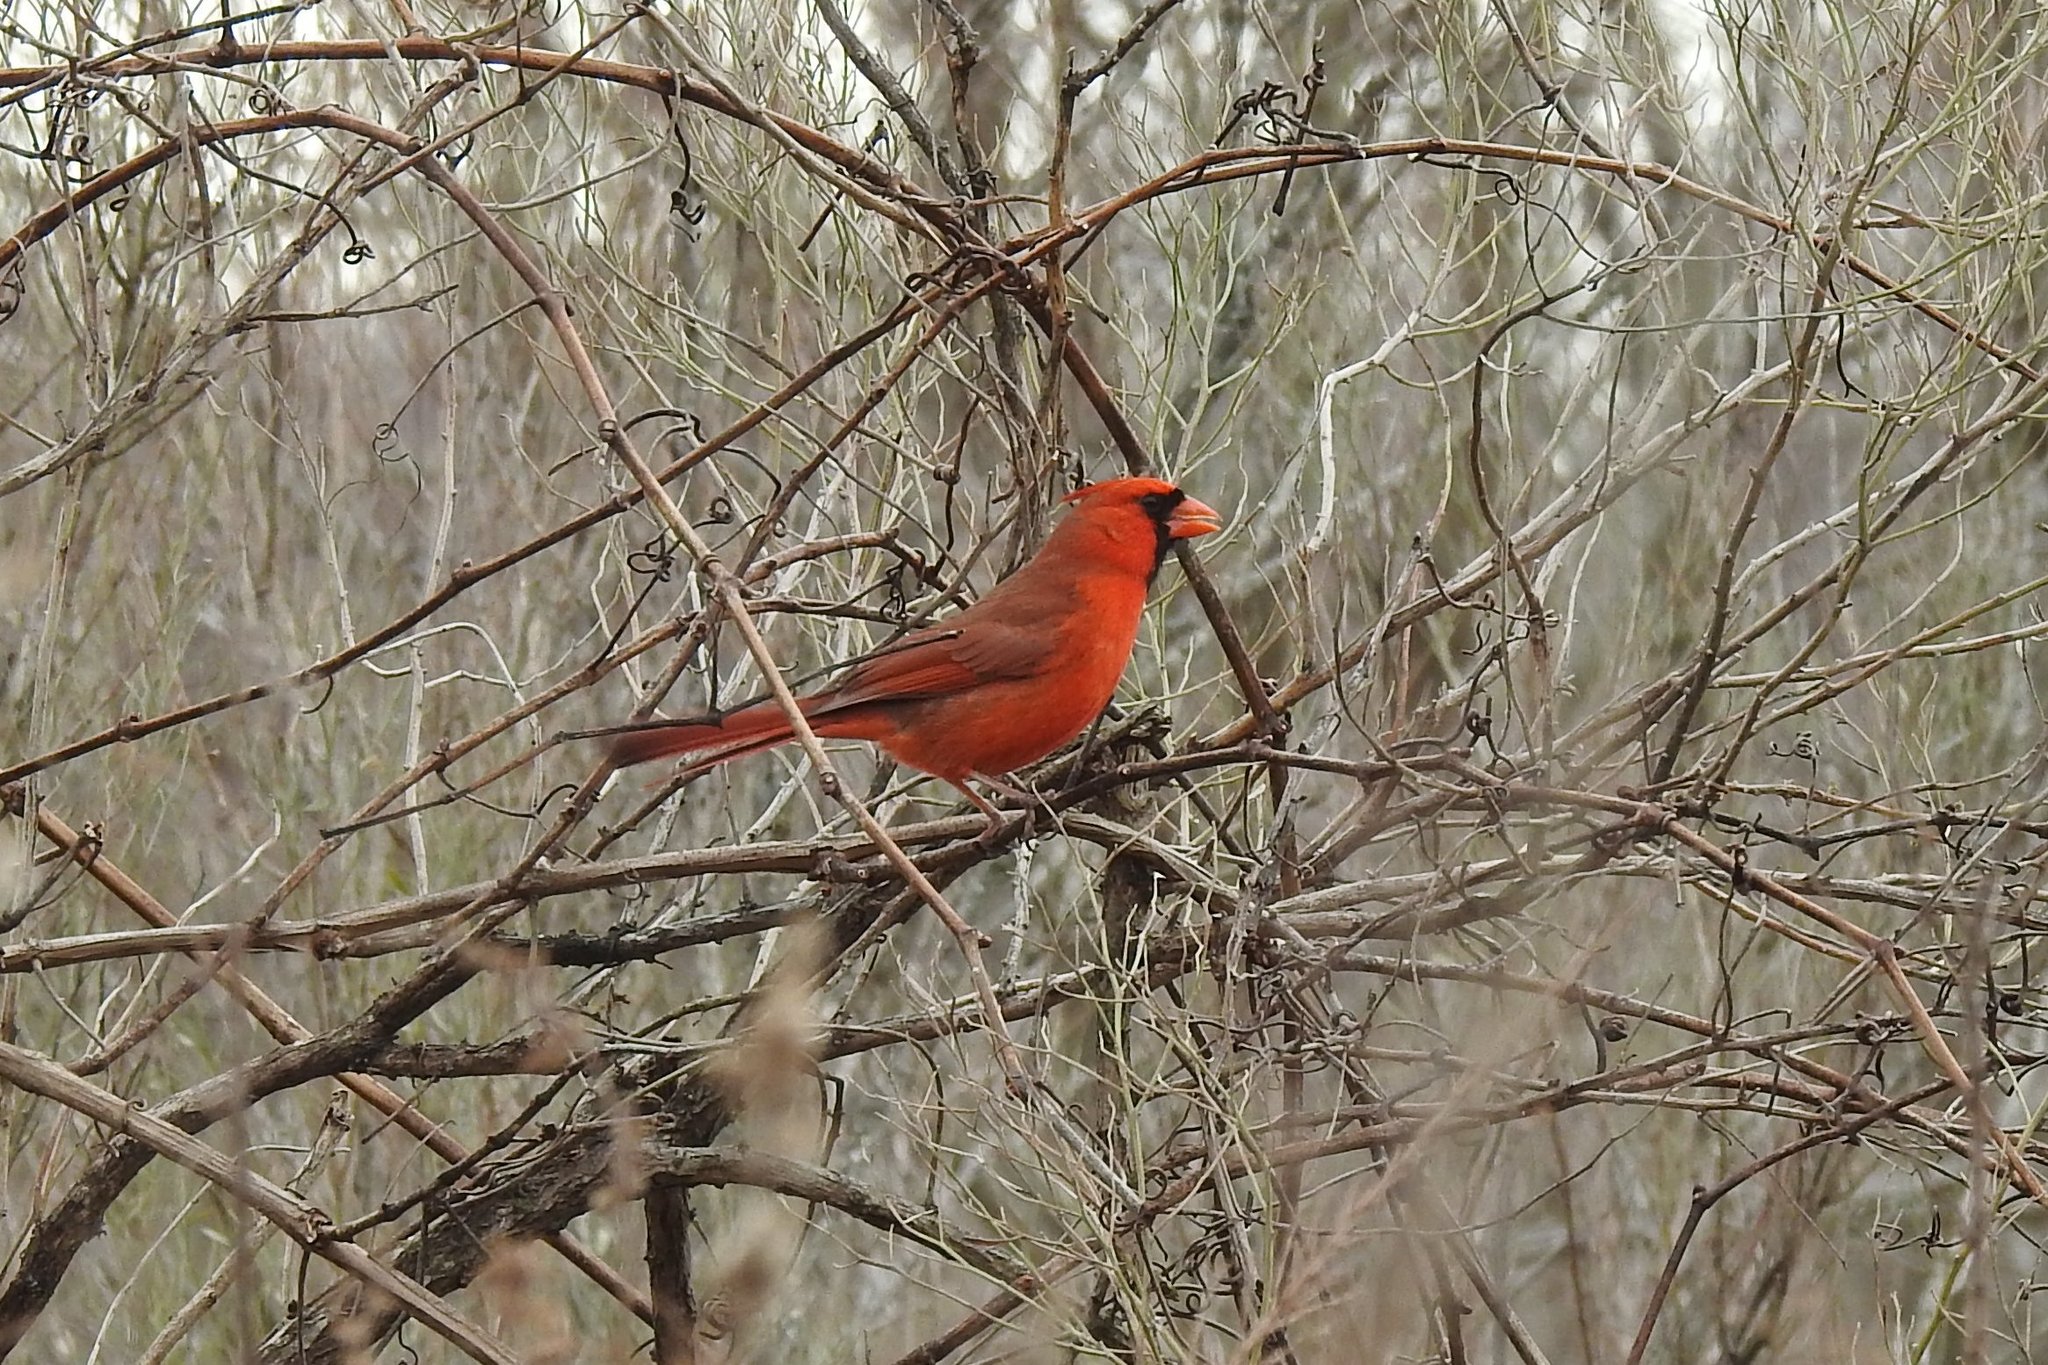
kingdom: Animalia
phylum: Chordata
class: Aves
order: Passeriformes
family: Cardinalidae
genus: Cardinalis
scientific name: Cardinalis cardinalis
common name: Northern cardinal
